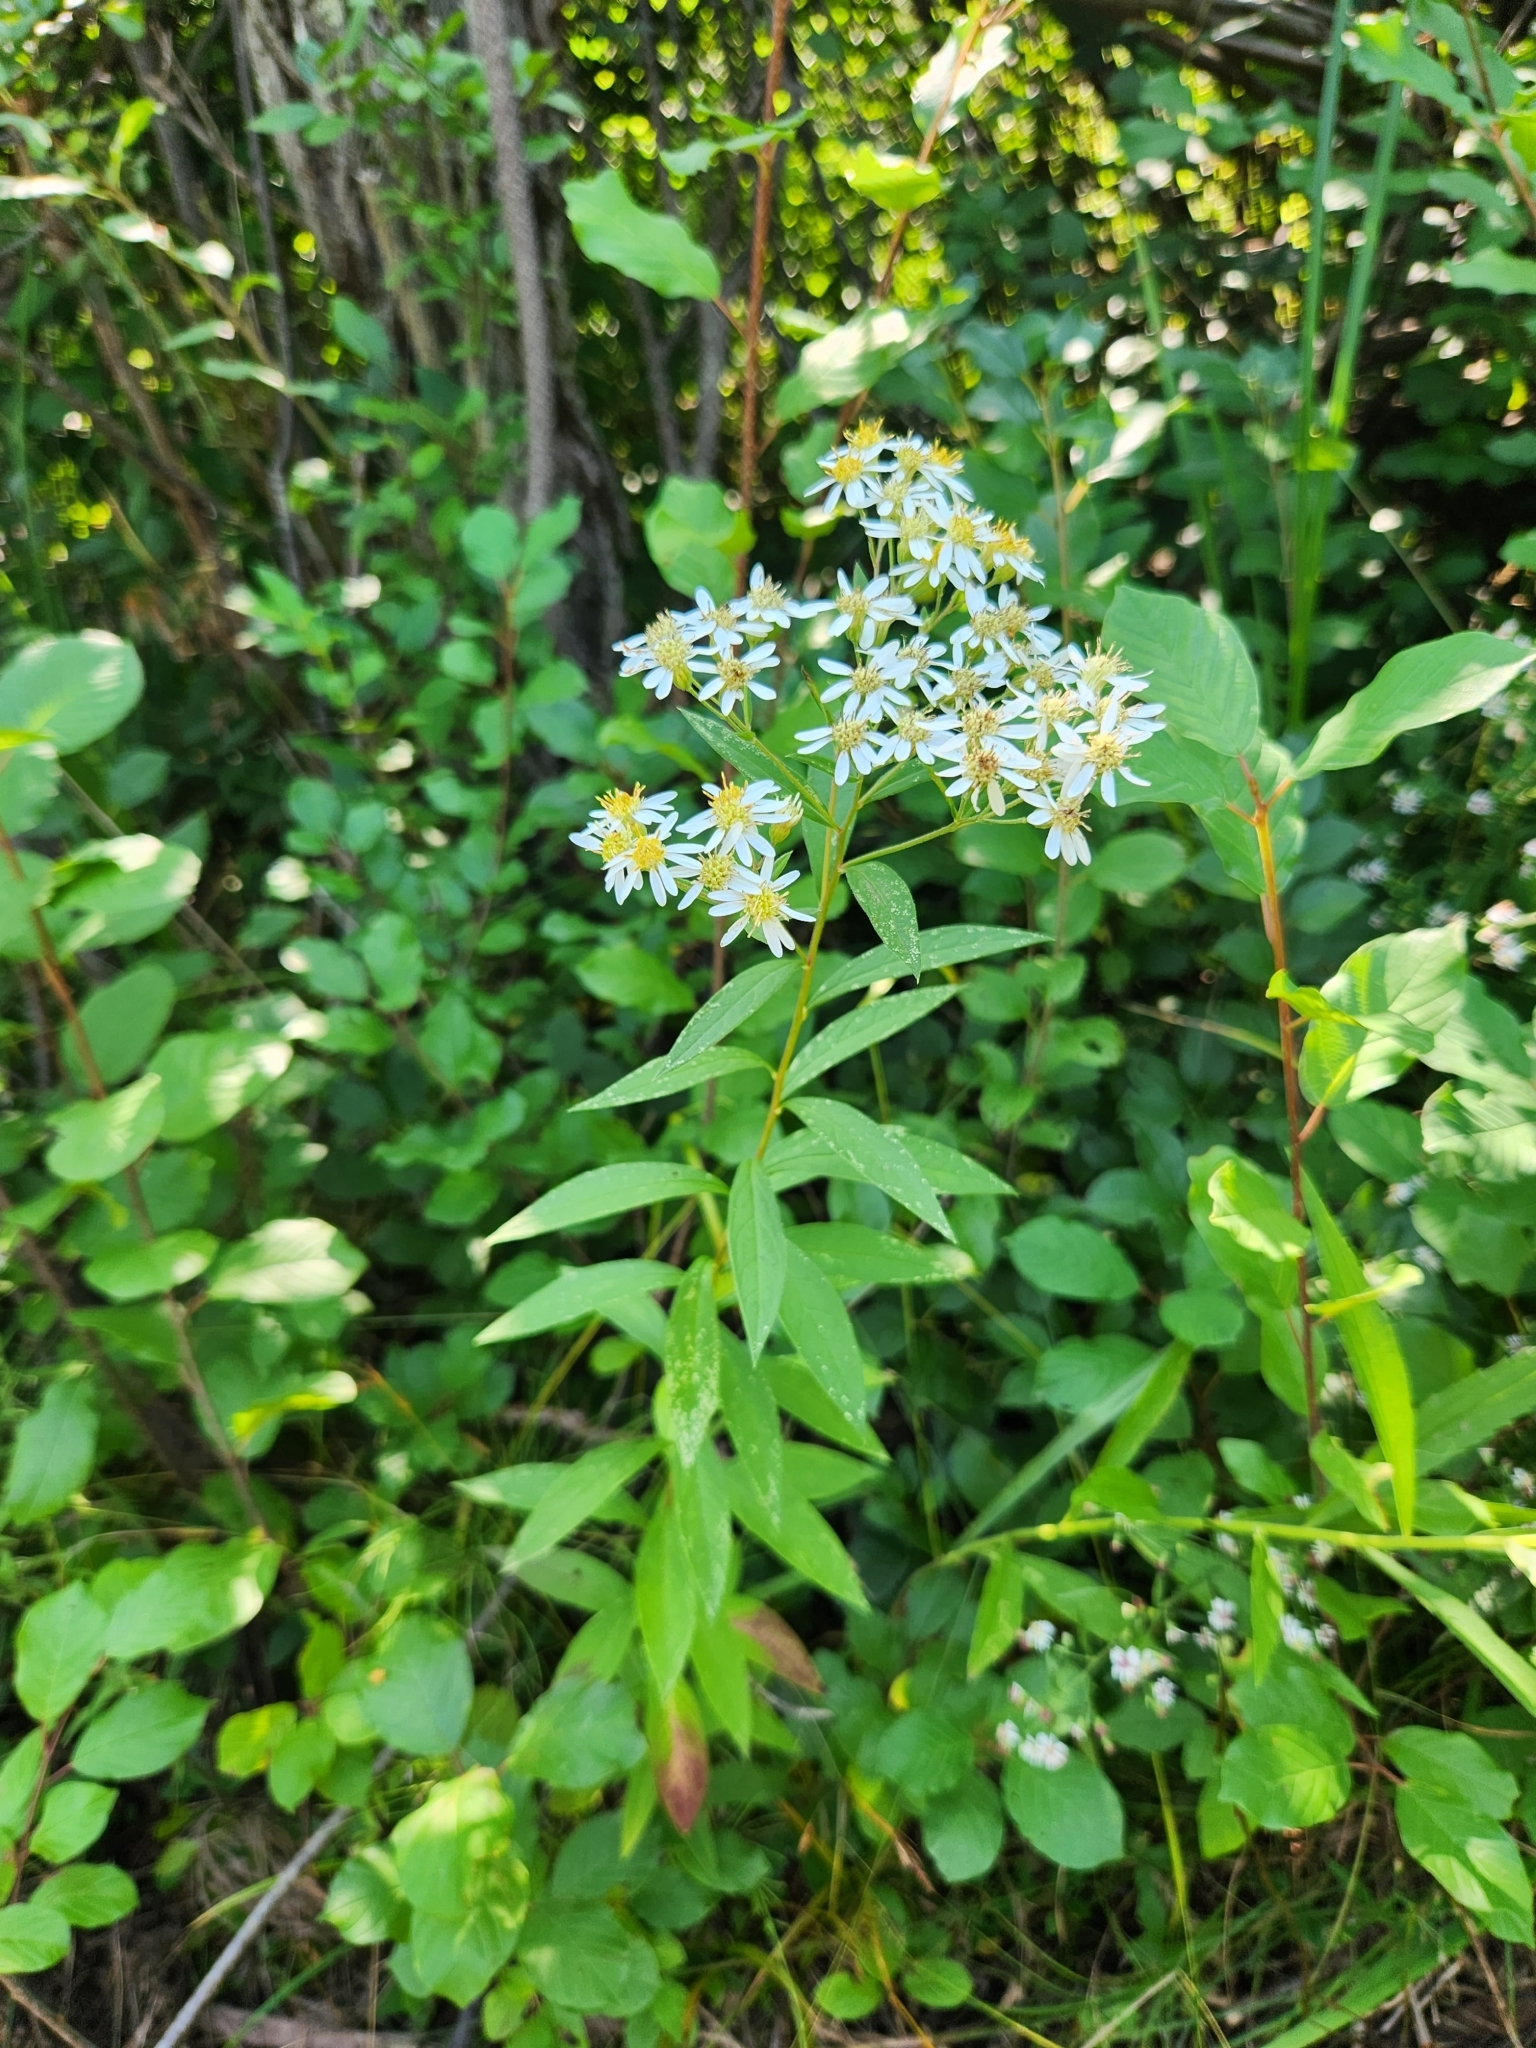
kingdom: Plantae
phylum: Tracheophyta
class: Magnoliopsida
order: Asterales
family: Asteraceae
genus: Doellingeria
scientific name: Doellingeria umbellata
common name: Flat-top white aster
